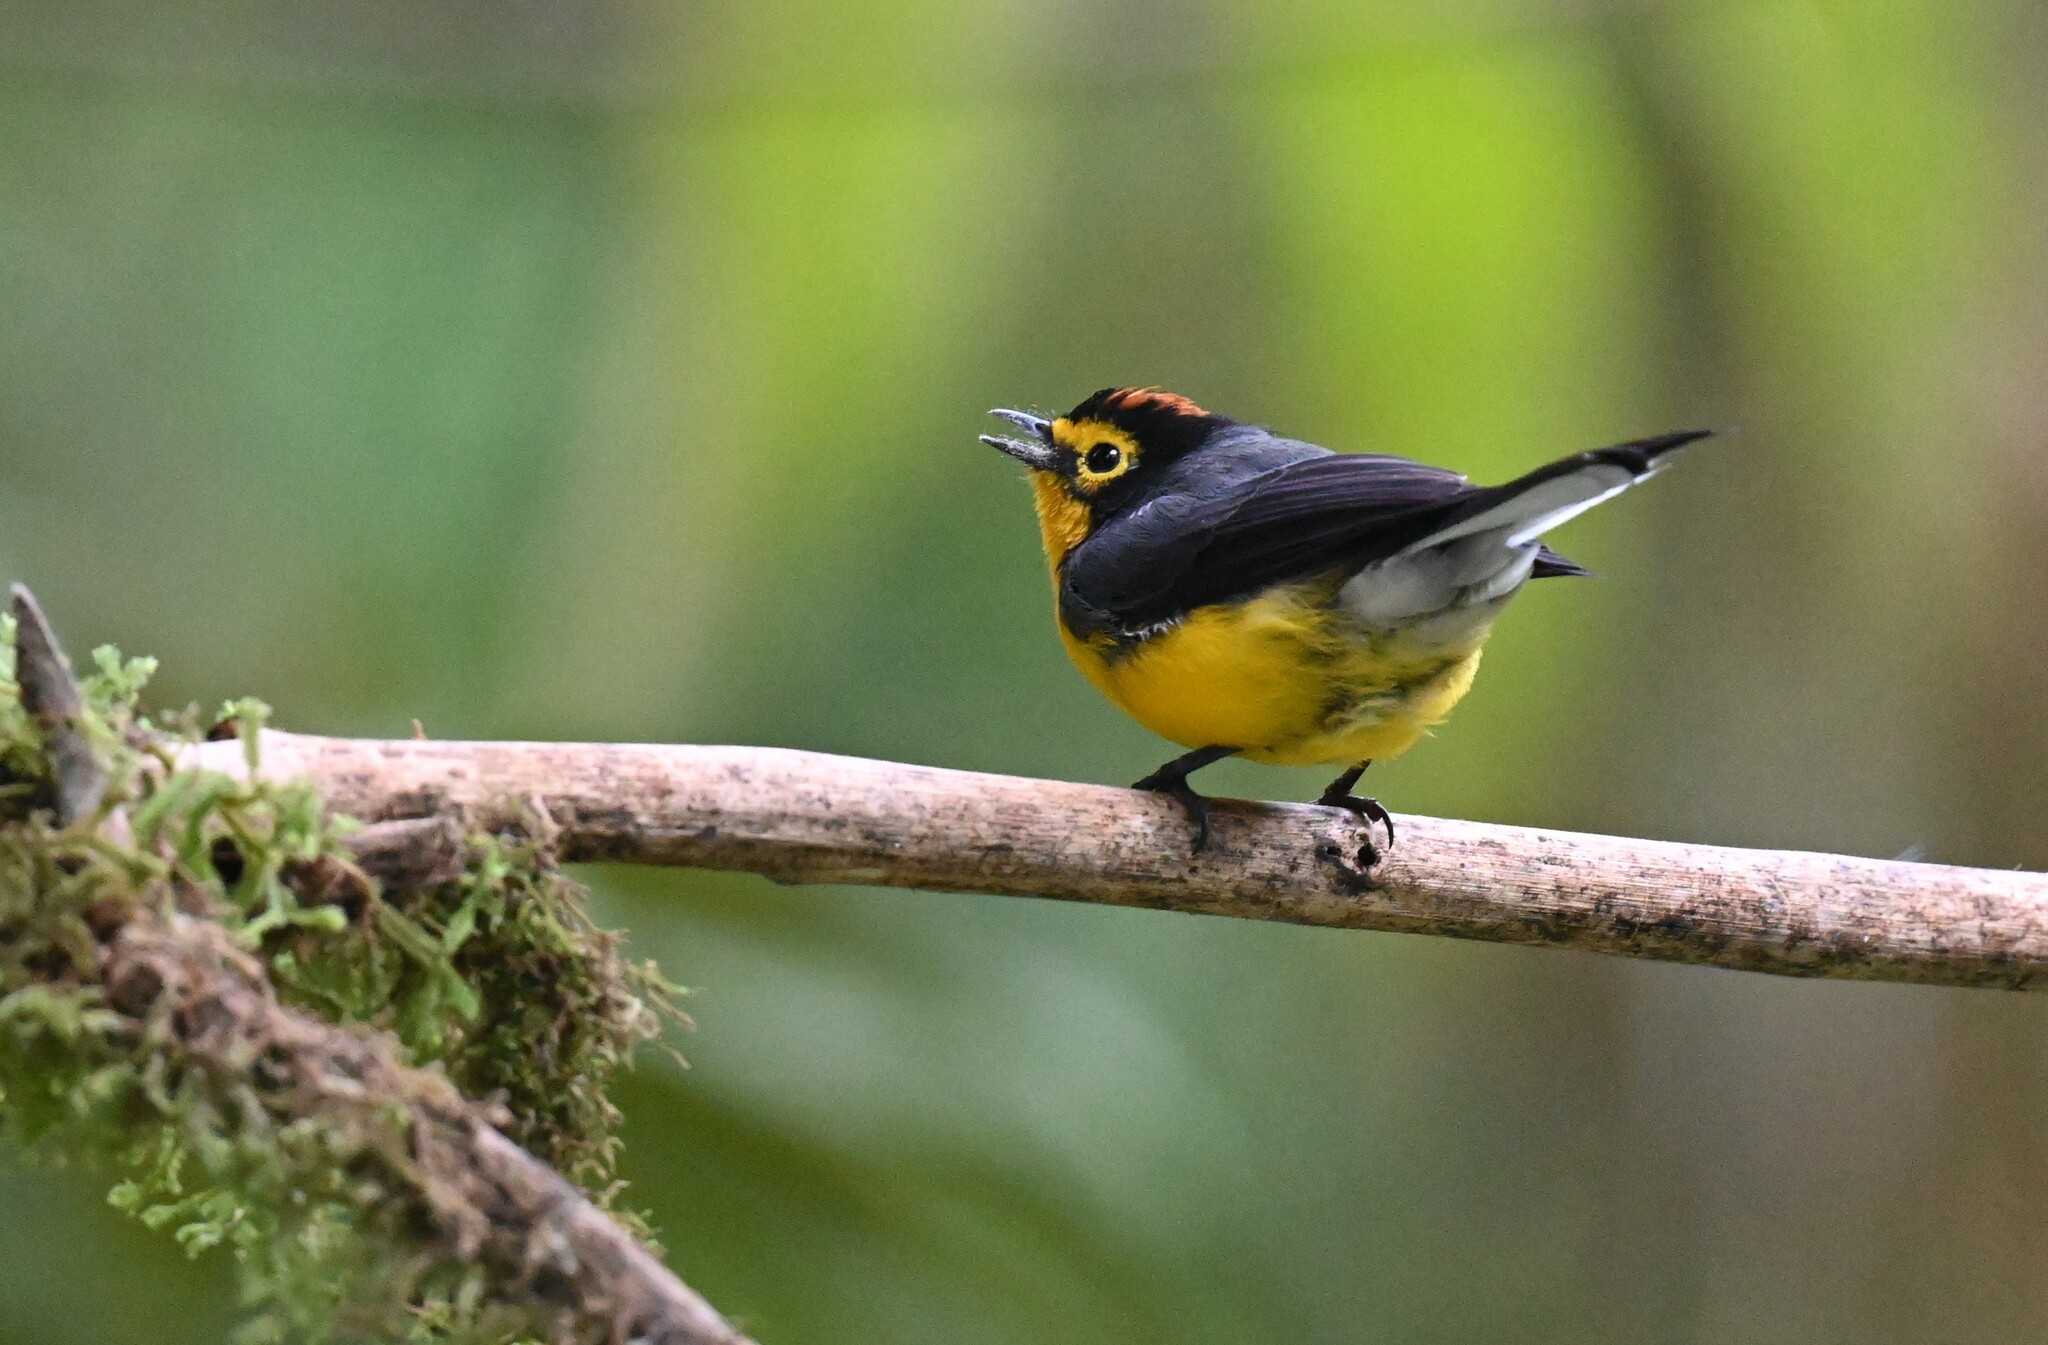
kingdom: Animalia
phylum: Chordata
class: Aves
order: Passeriformes
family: Parulidae
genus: Myioborus
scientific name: Myioborus melanocephalus
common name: Spectacled whitestart
